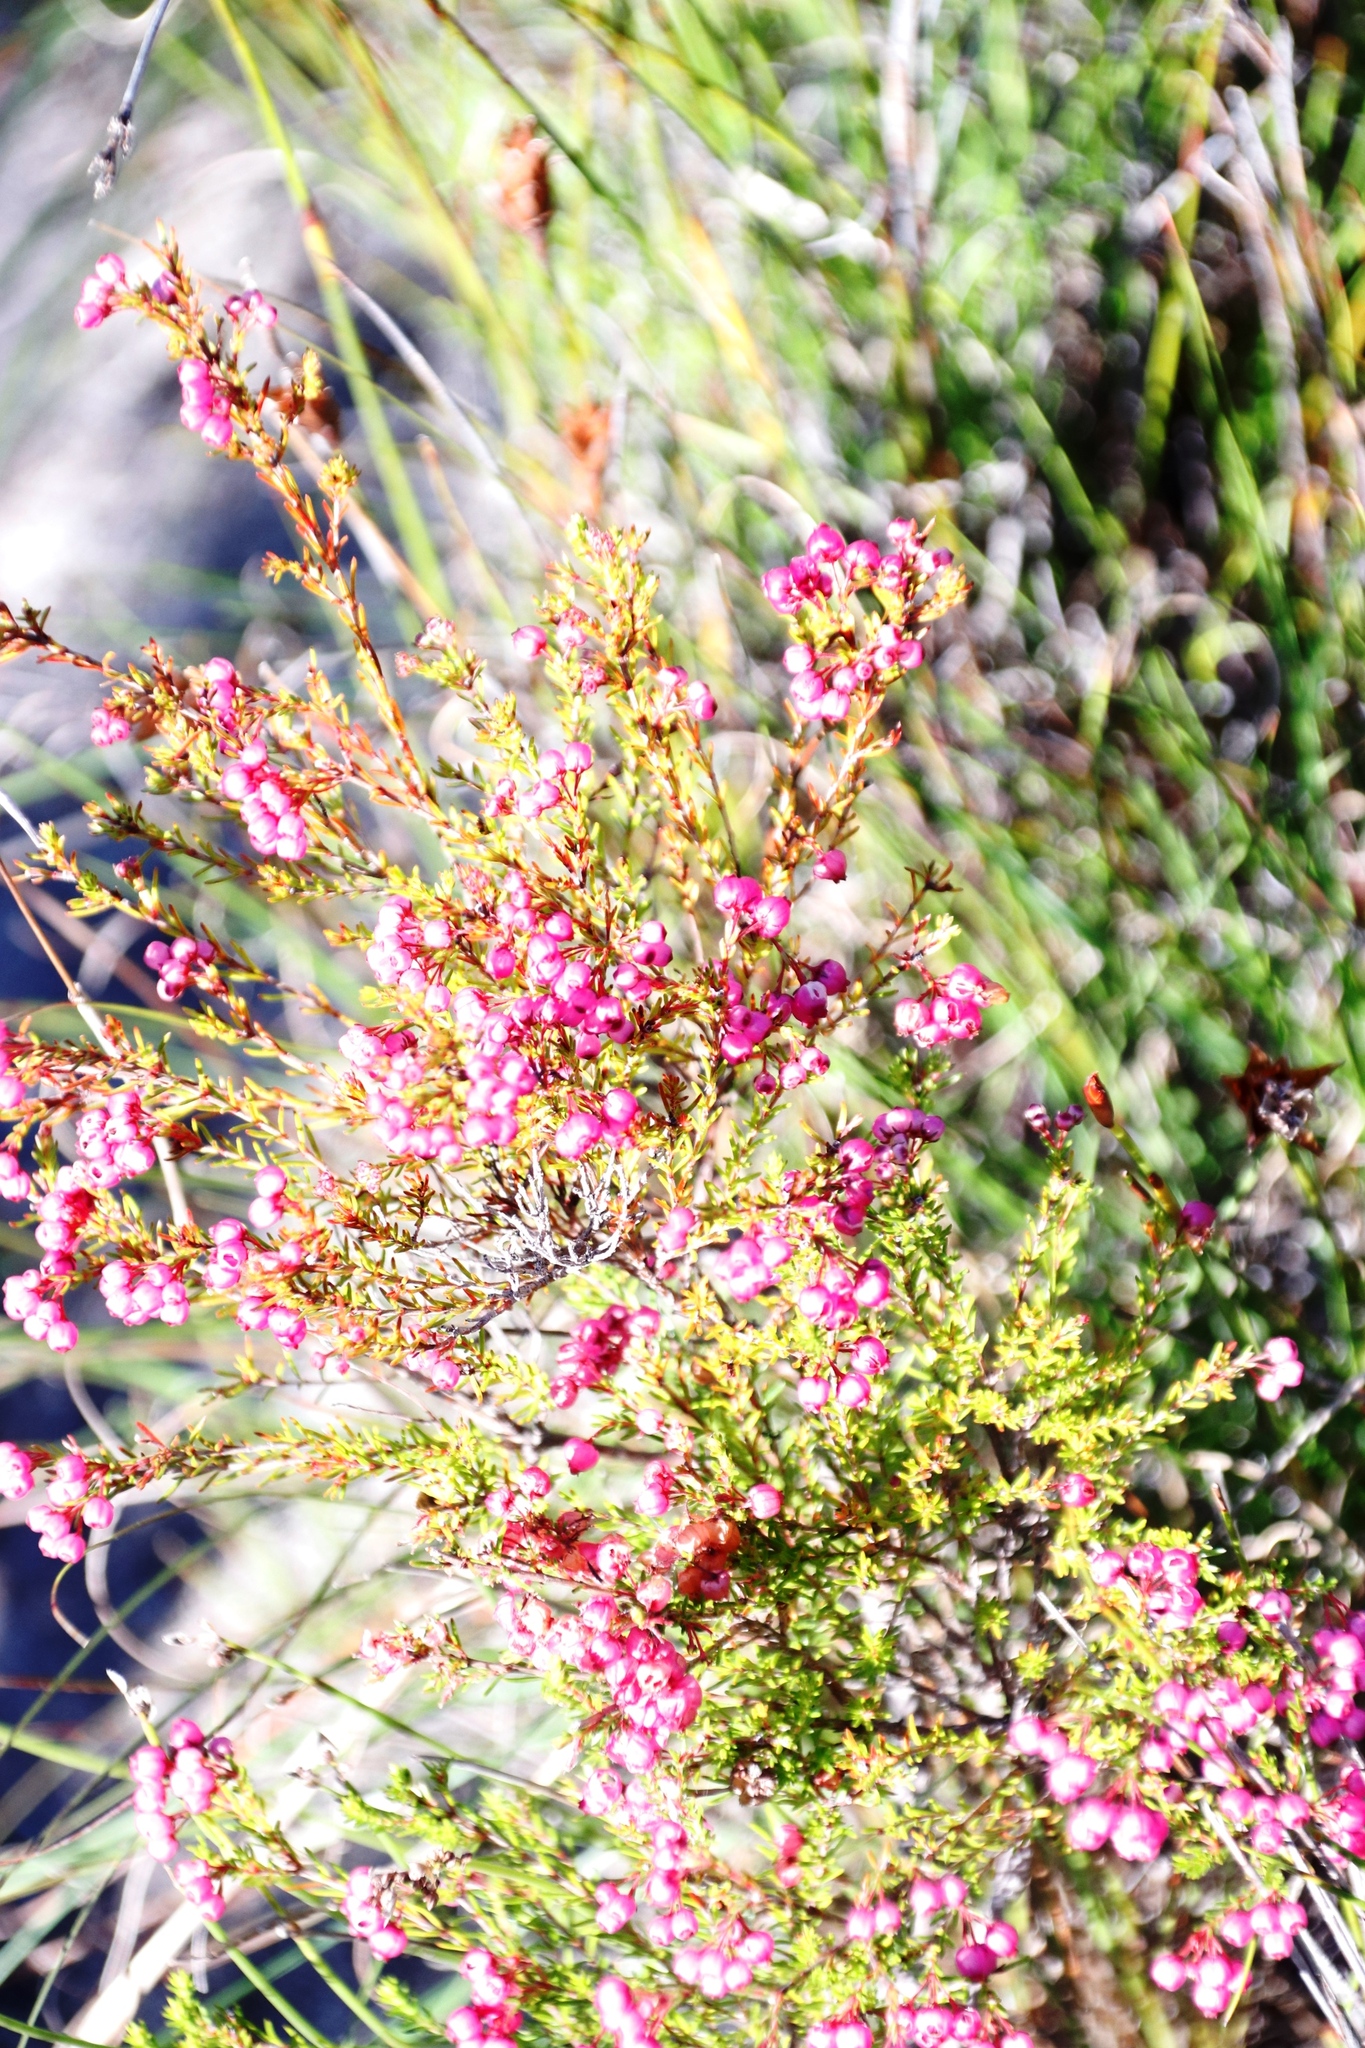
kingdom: Plantae
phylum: Tracheophyta
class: Magnoliopsida
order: Ericales
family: Ericaceae
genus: Erica
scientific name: Erica multumbellifera
